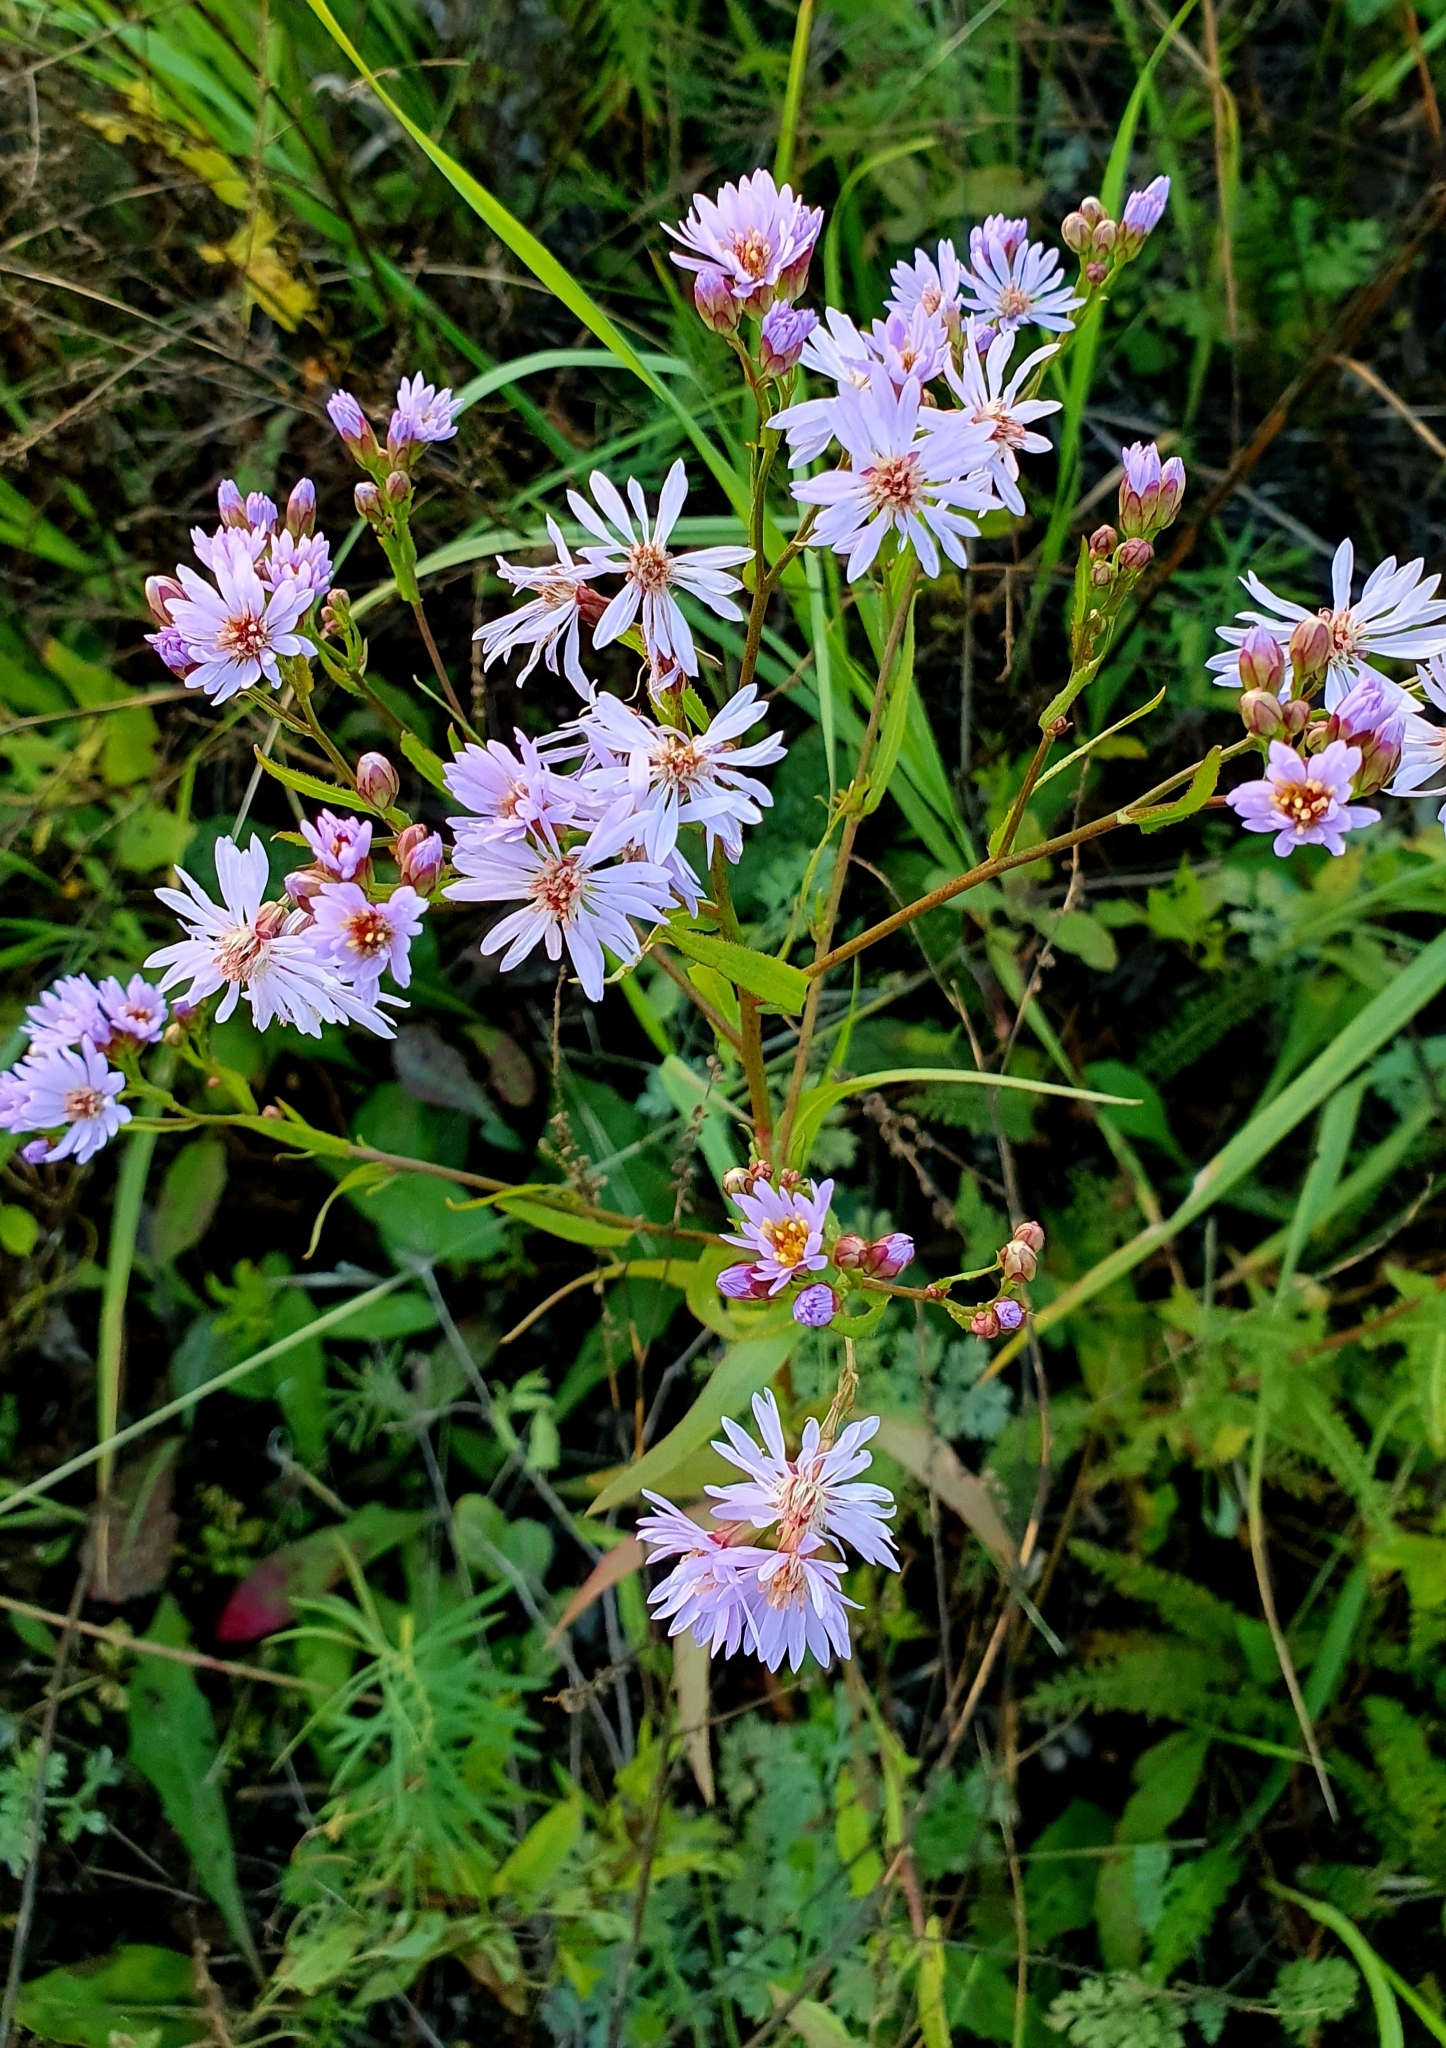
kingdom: Plantae
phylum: Tracheophyta
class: Magnoliopsida
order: Asterales
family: Asteraceae
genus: Tripolium
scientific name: Tripolium pannonicum
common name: Sea aster
